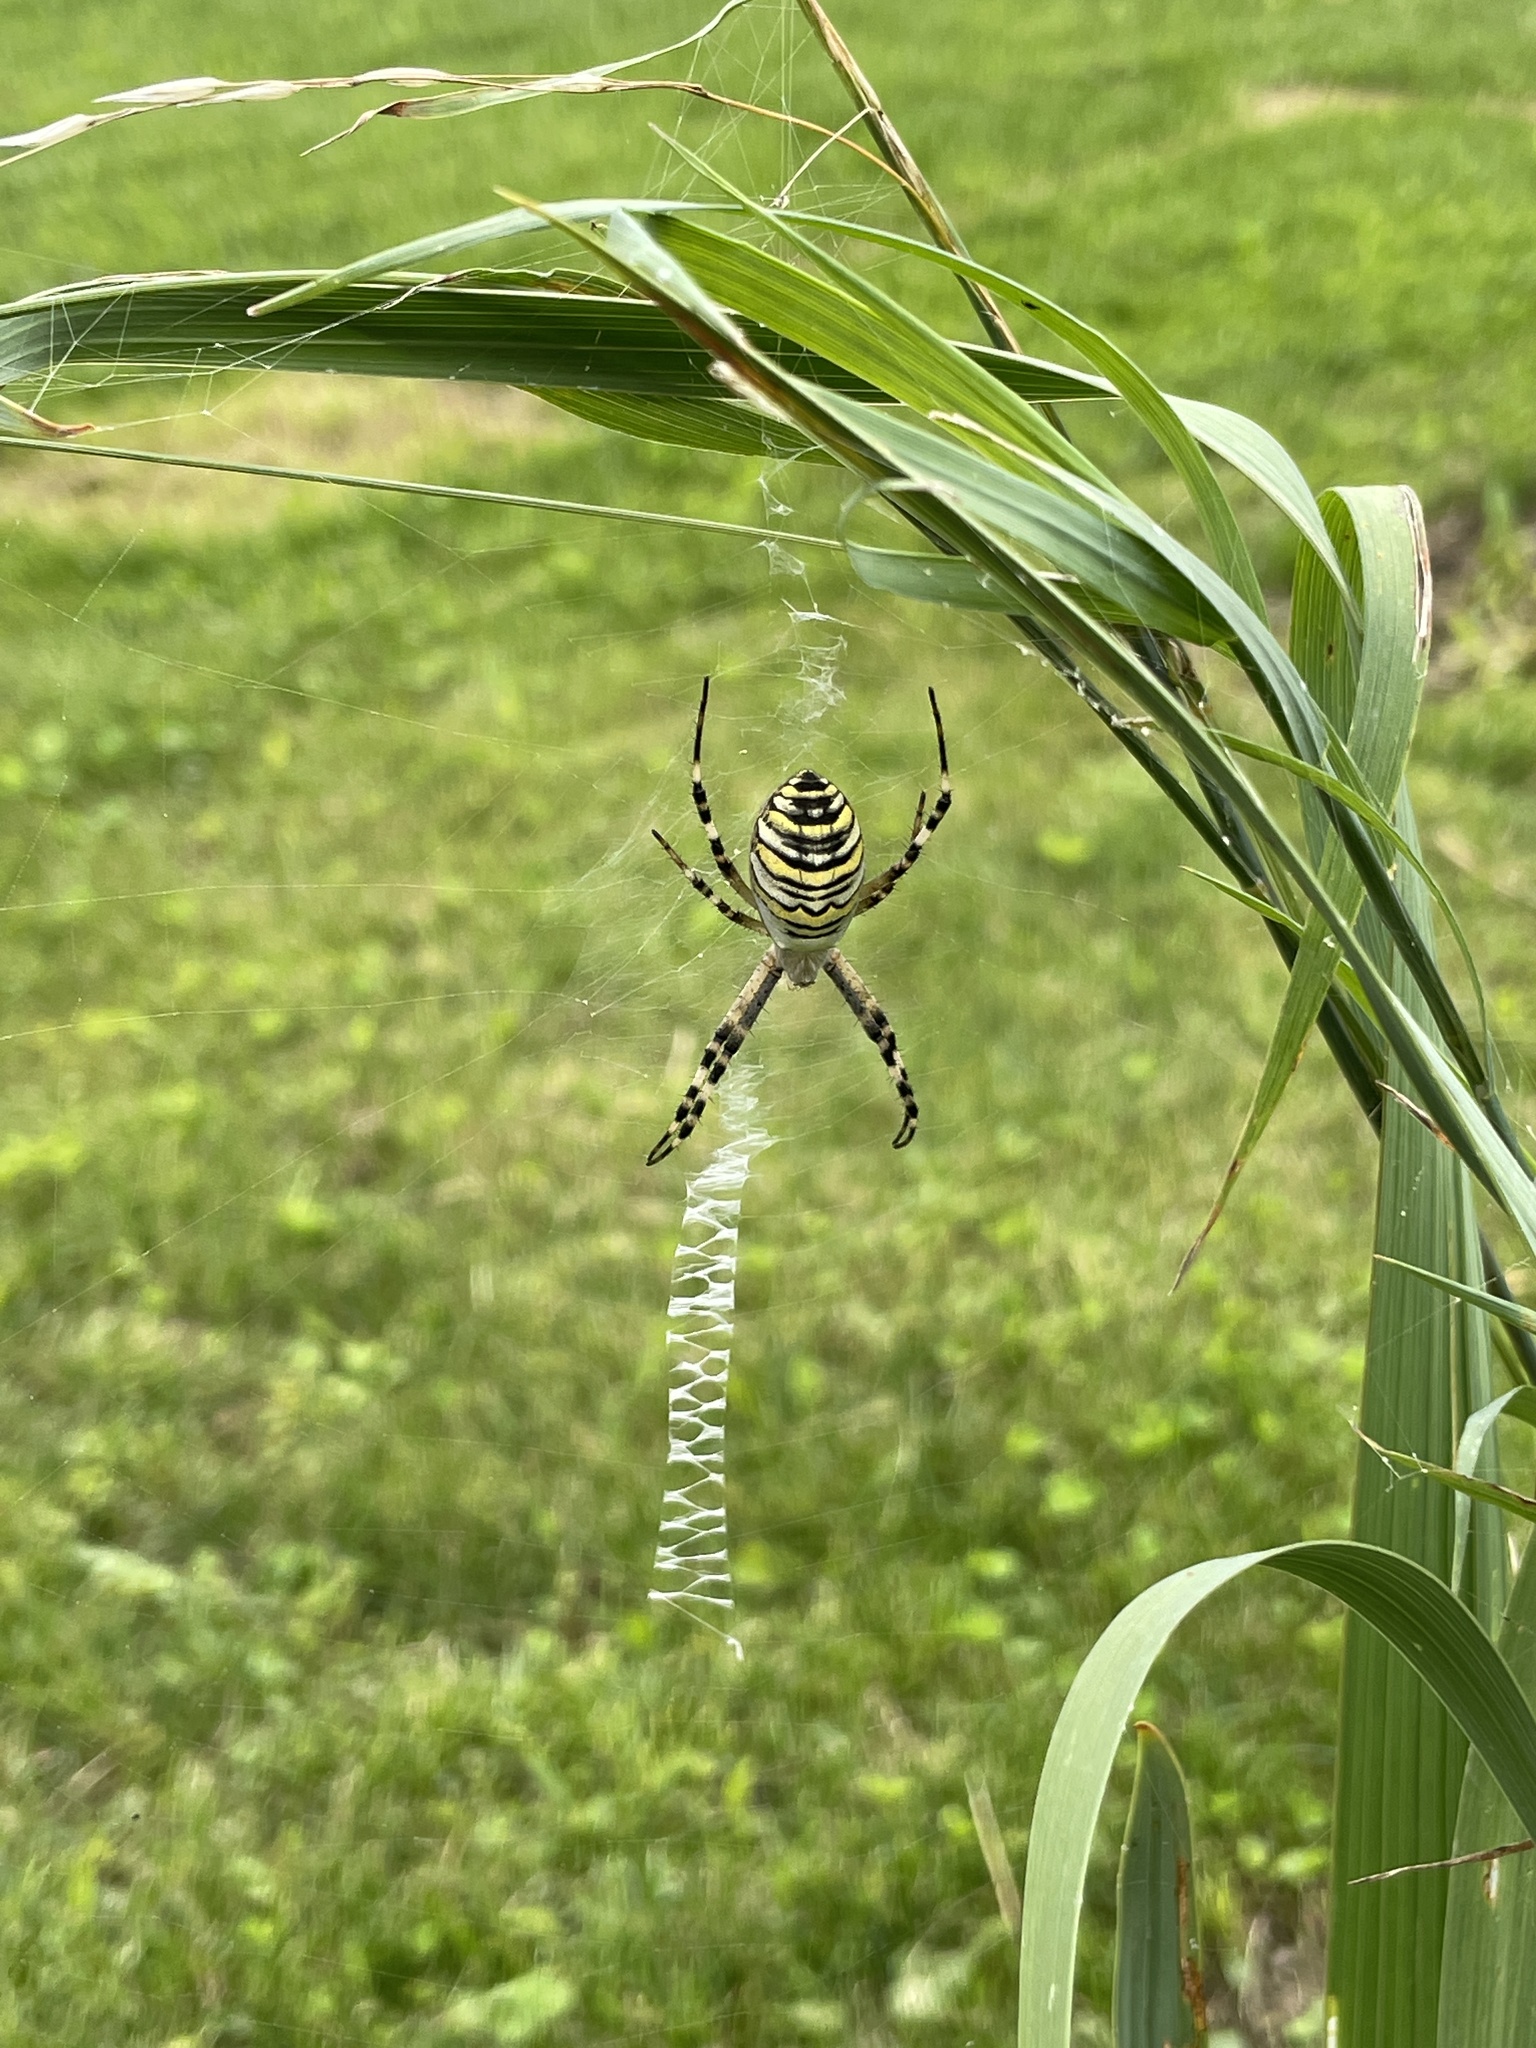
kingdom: Animalia
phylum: Arthropoda
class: Arachnida
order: Araneae
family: Araneidae
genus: Argiope
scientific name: Argiope bruennichi
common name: Wasp spider
